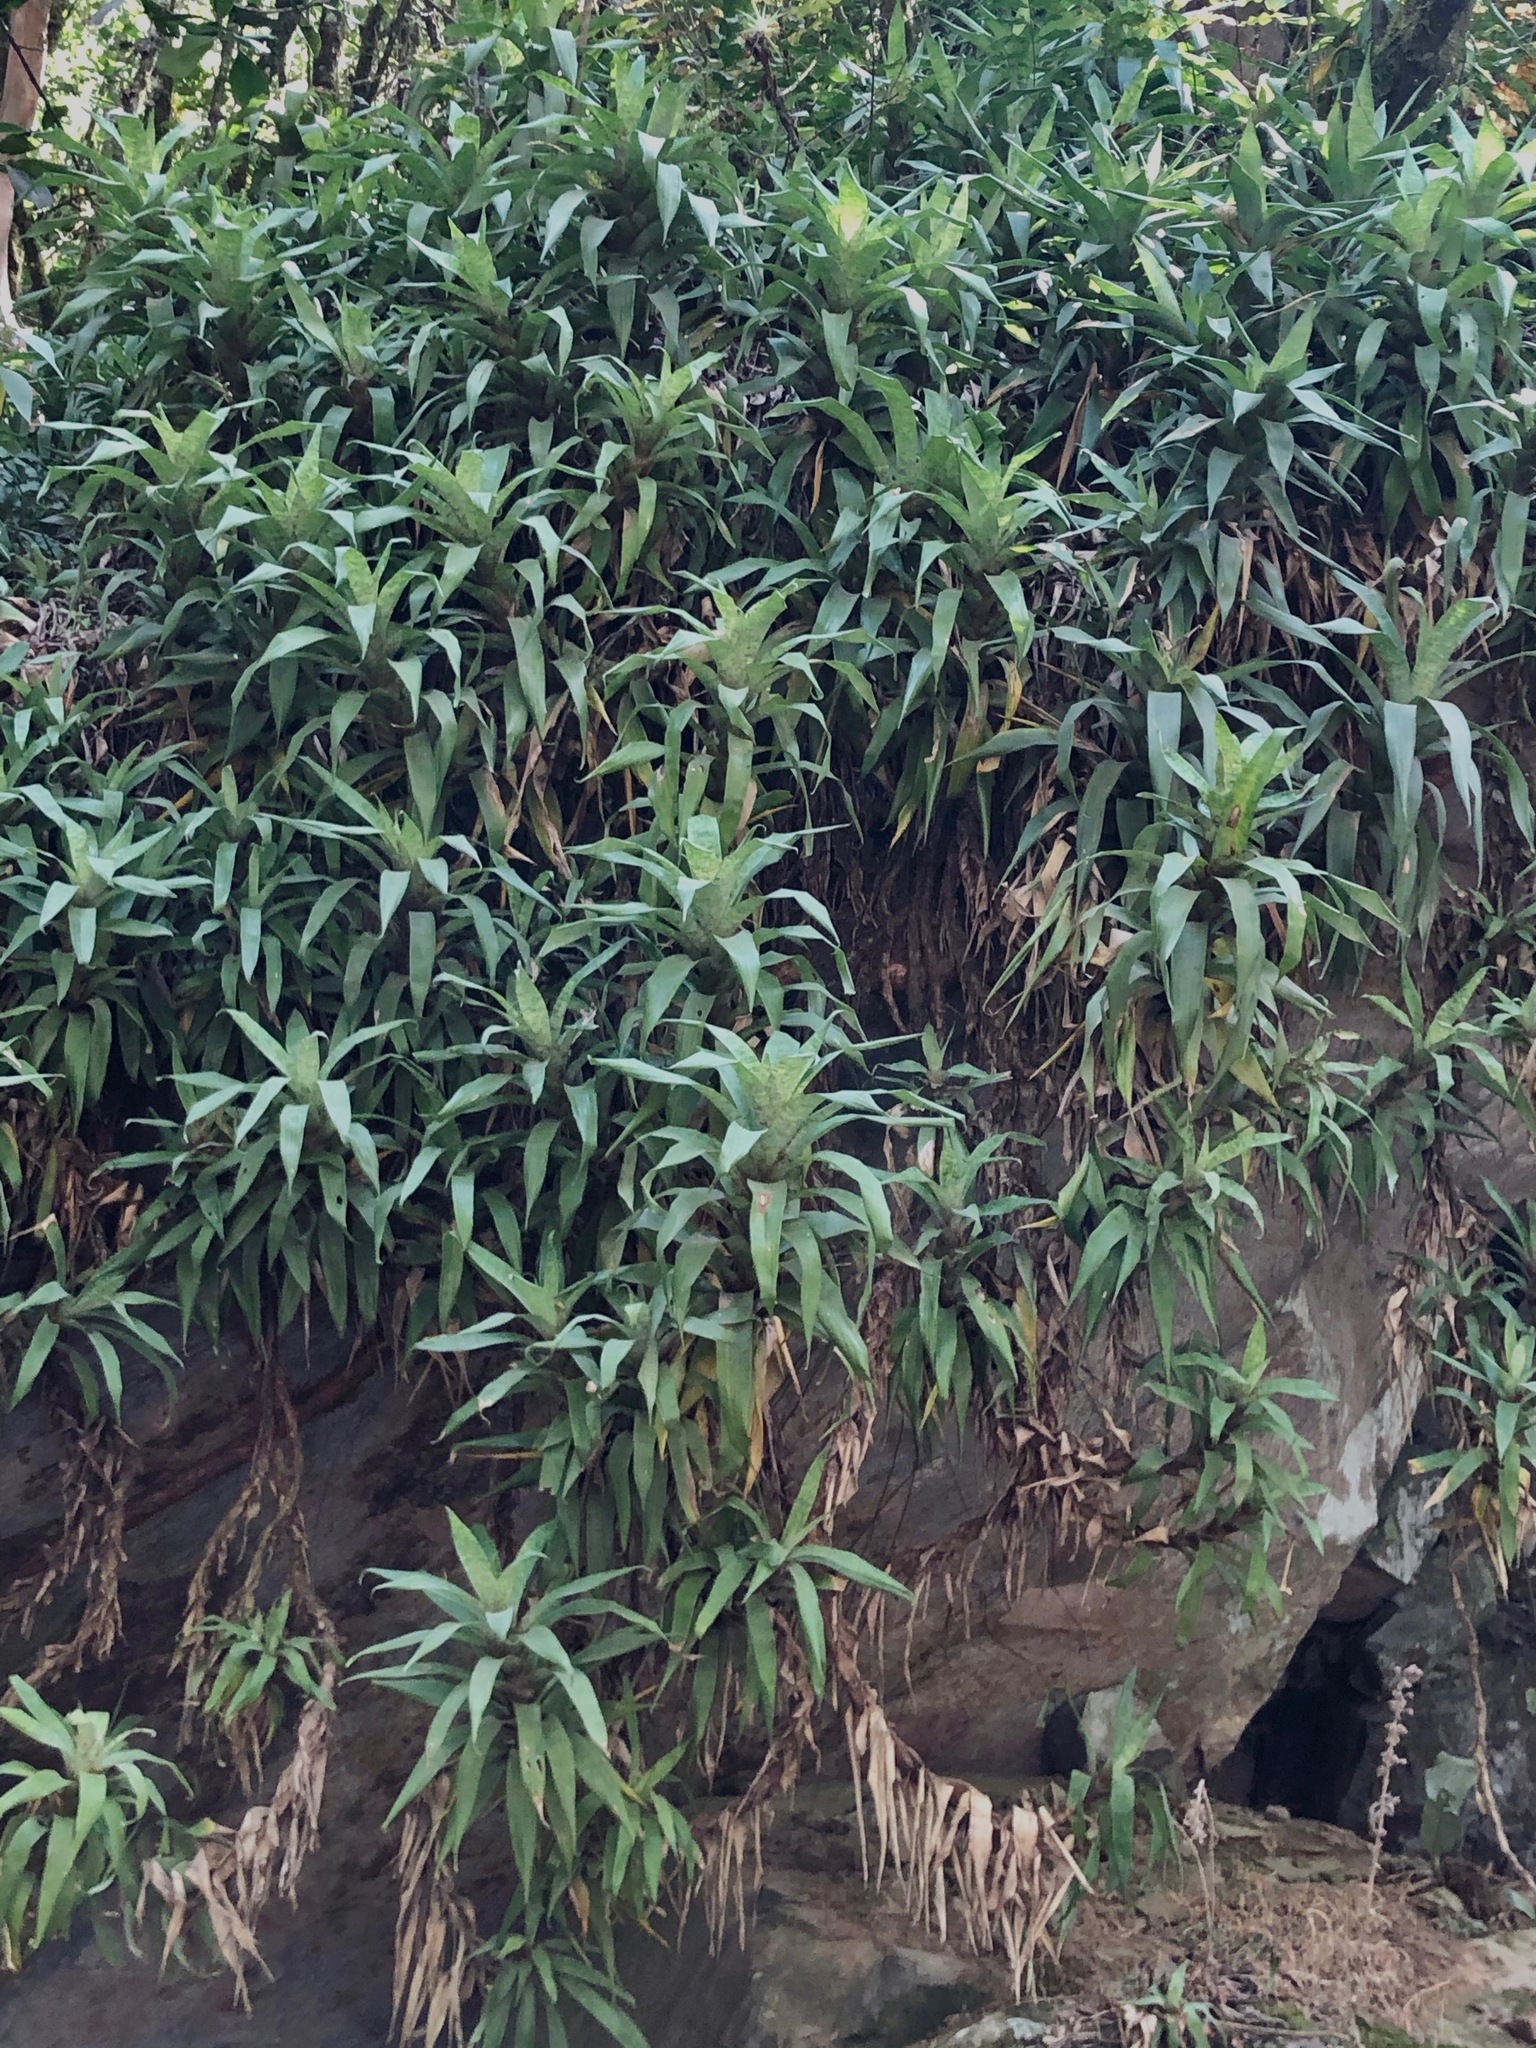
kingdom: Plantae
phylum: Tracheophyta
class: Liliopsida
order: Poales
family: Bromeliaceae
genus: Goudaea
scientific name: Goudaea ospinae
